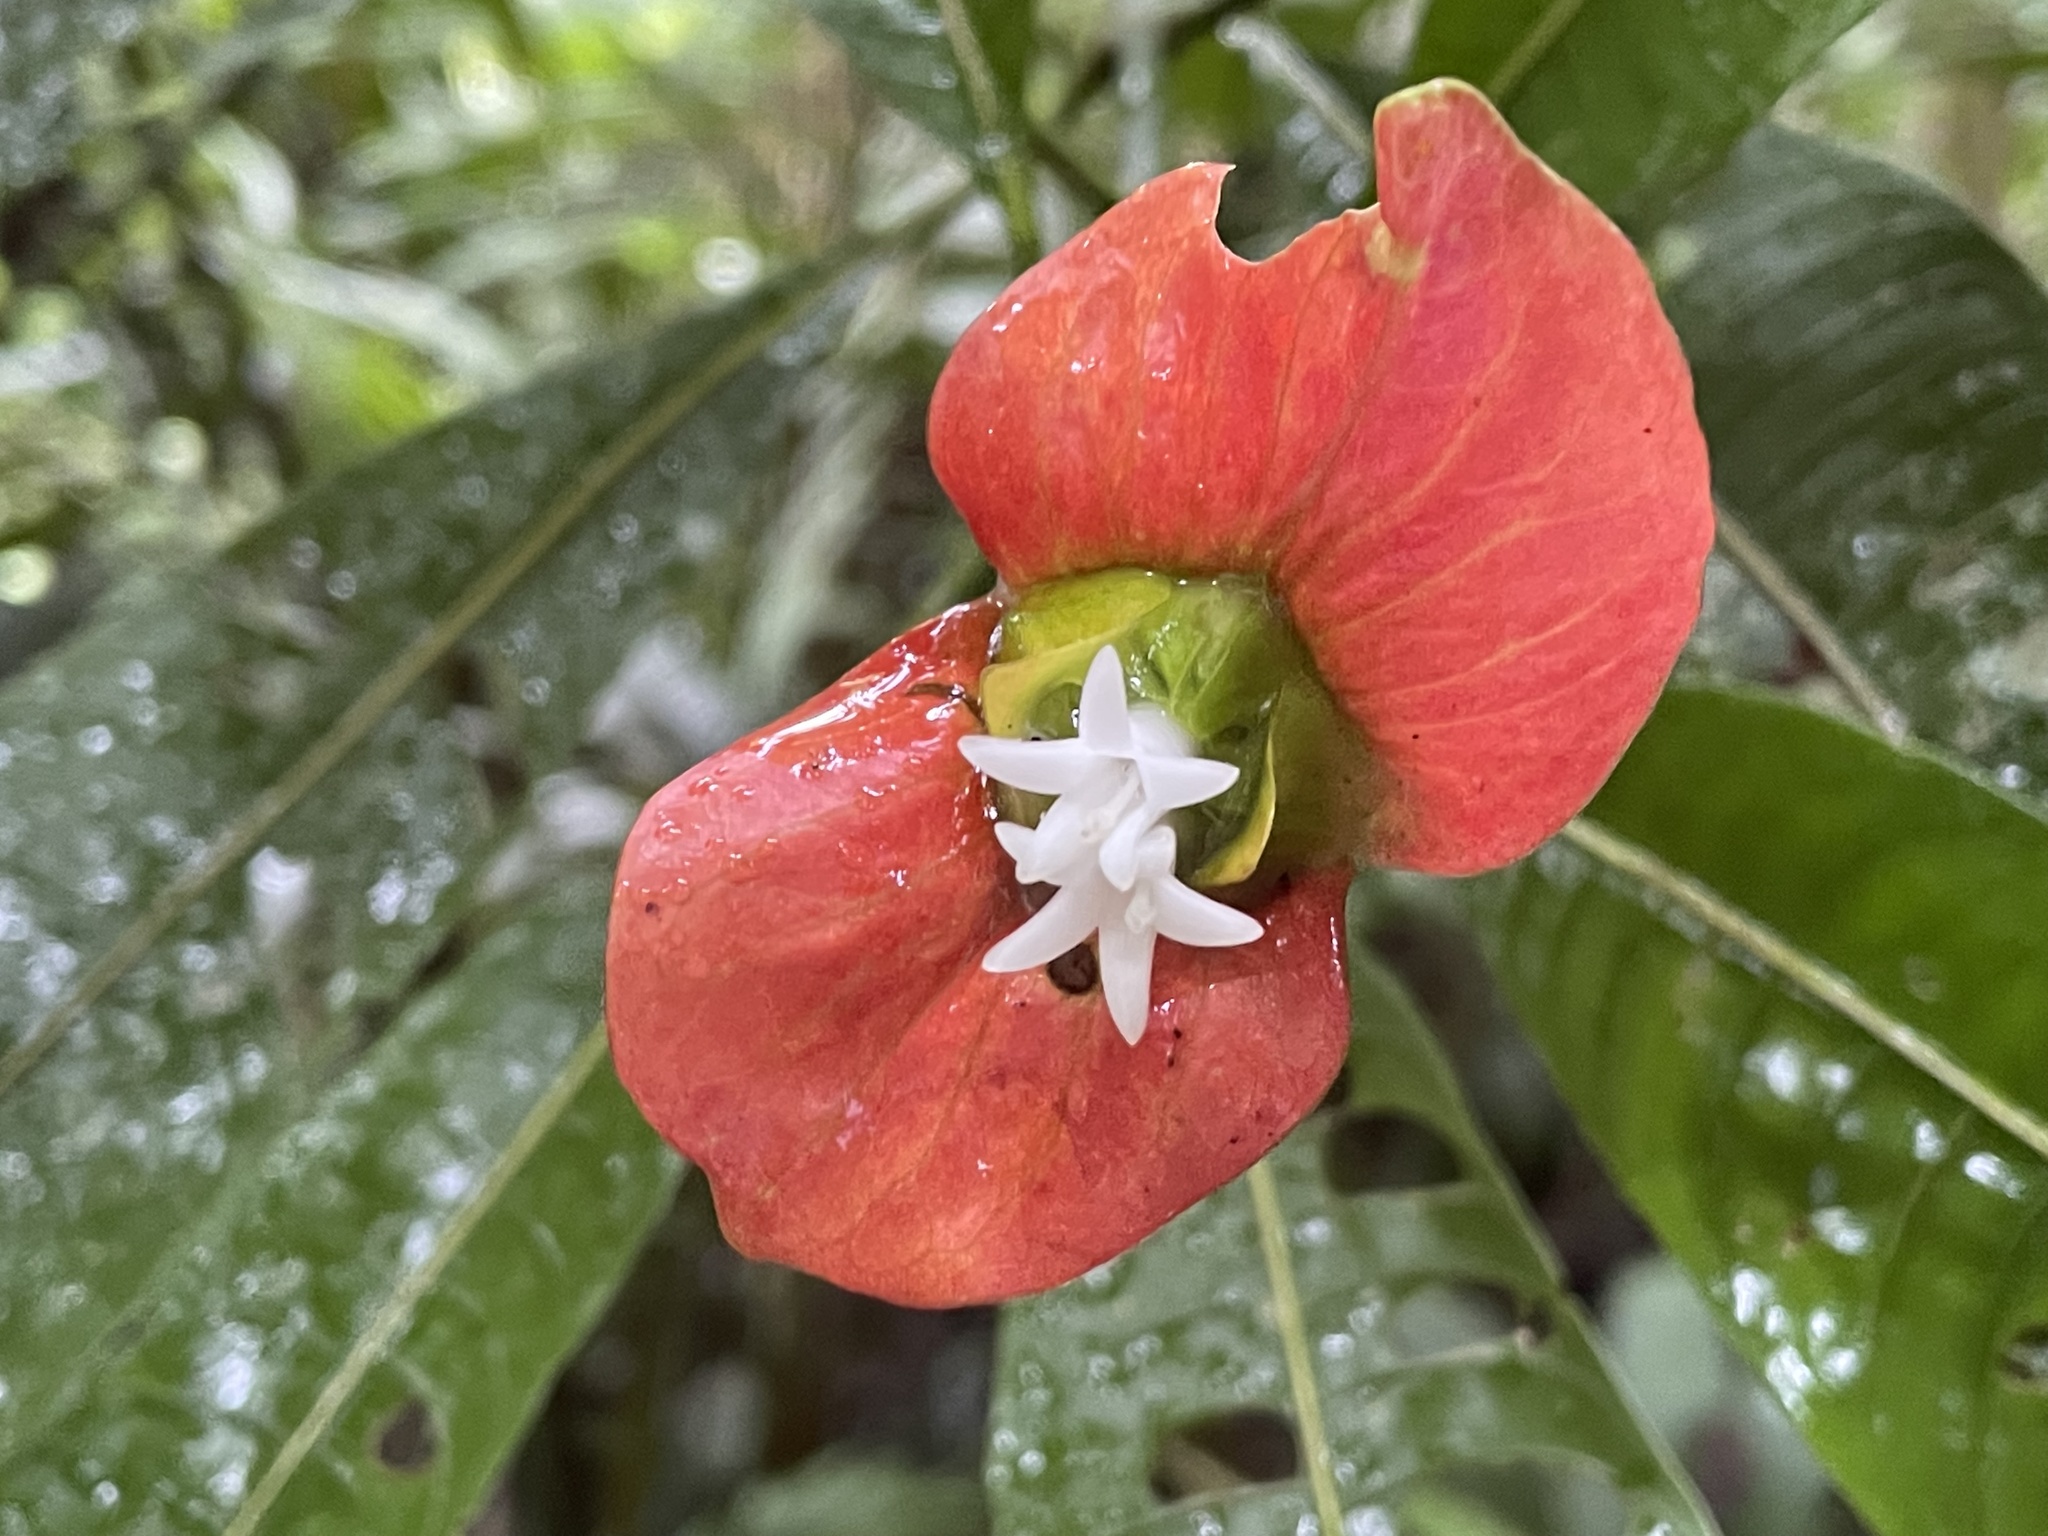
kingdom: Plantae
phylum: Tracheophyta
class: Magnoliopsida
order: Gentianales
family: Rubiaceae
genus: Palicourea
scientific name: Palicourea elata
